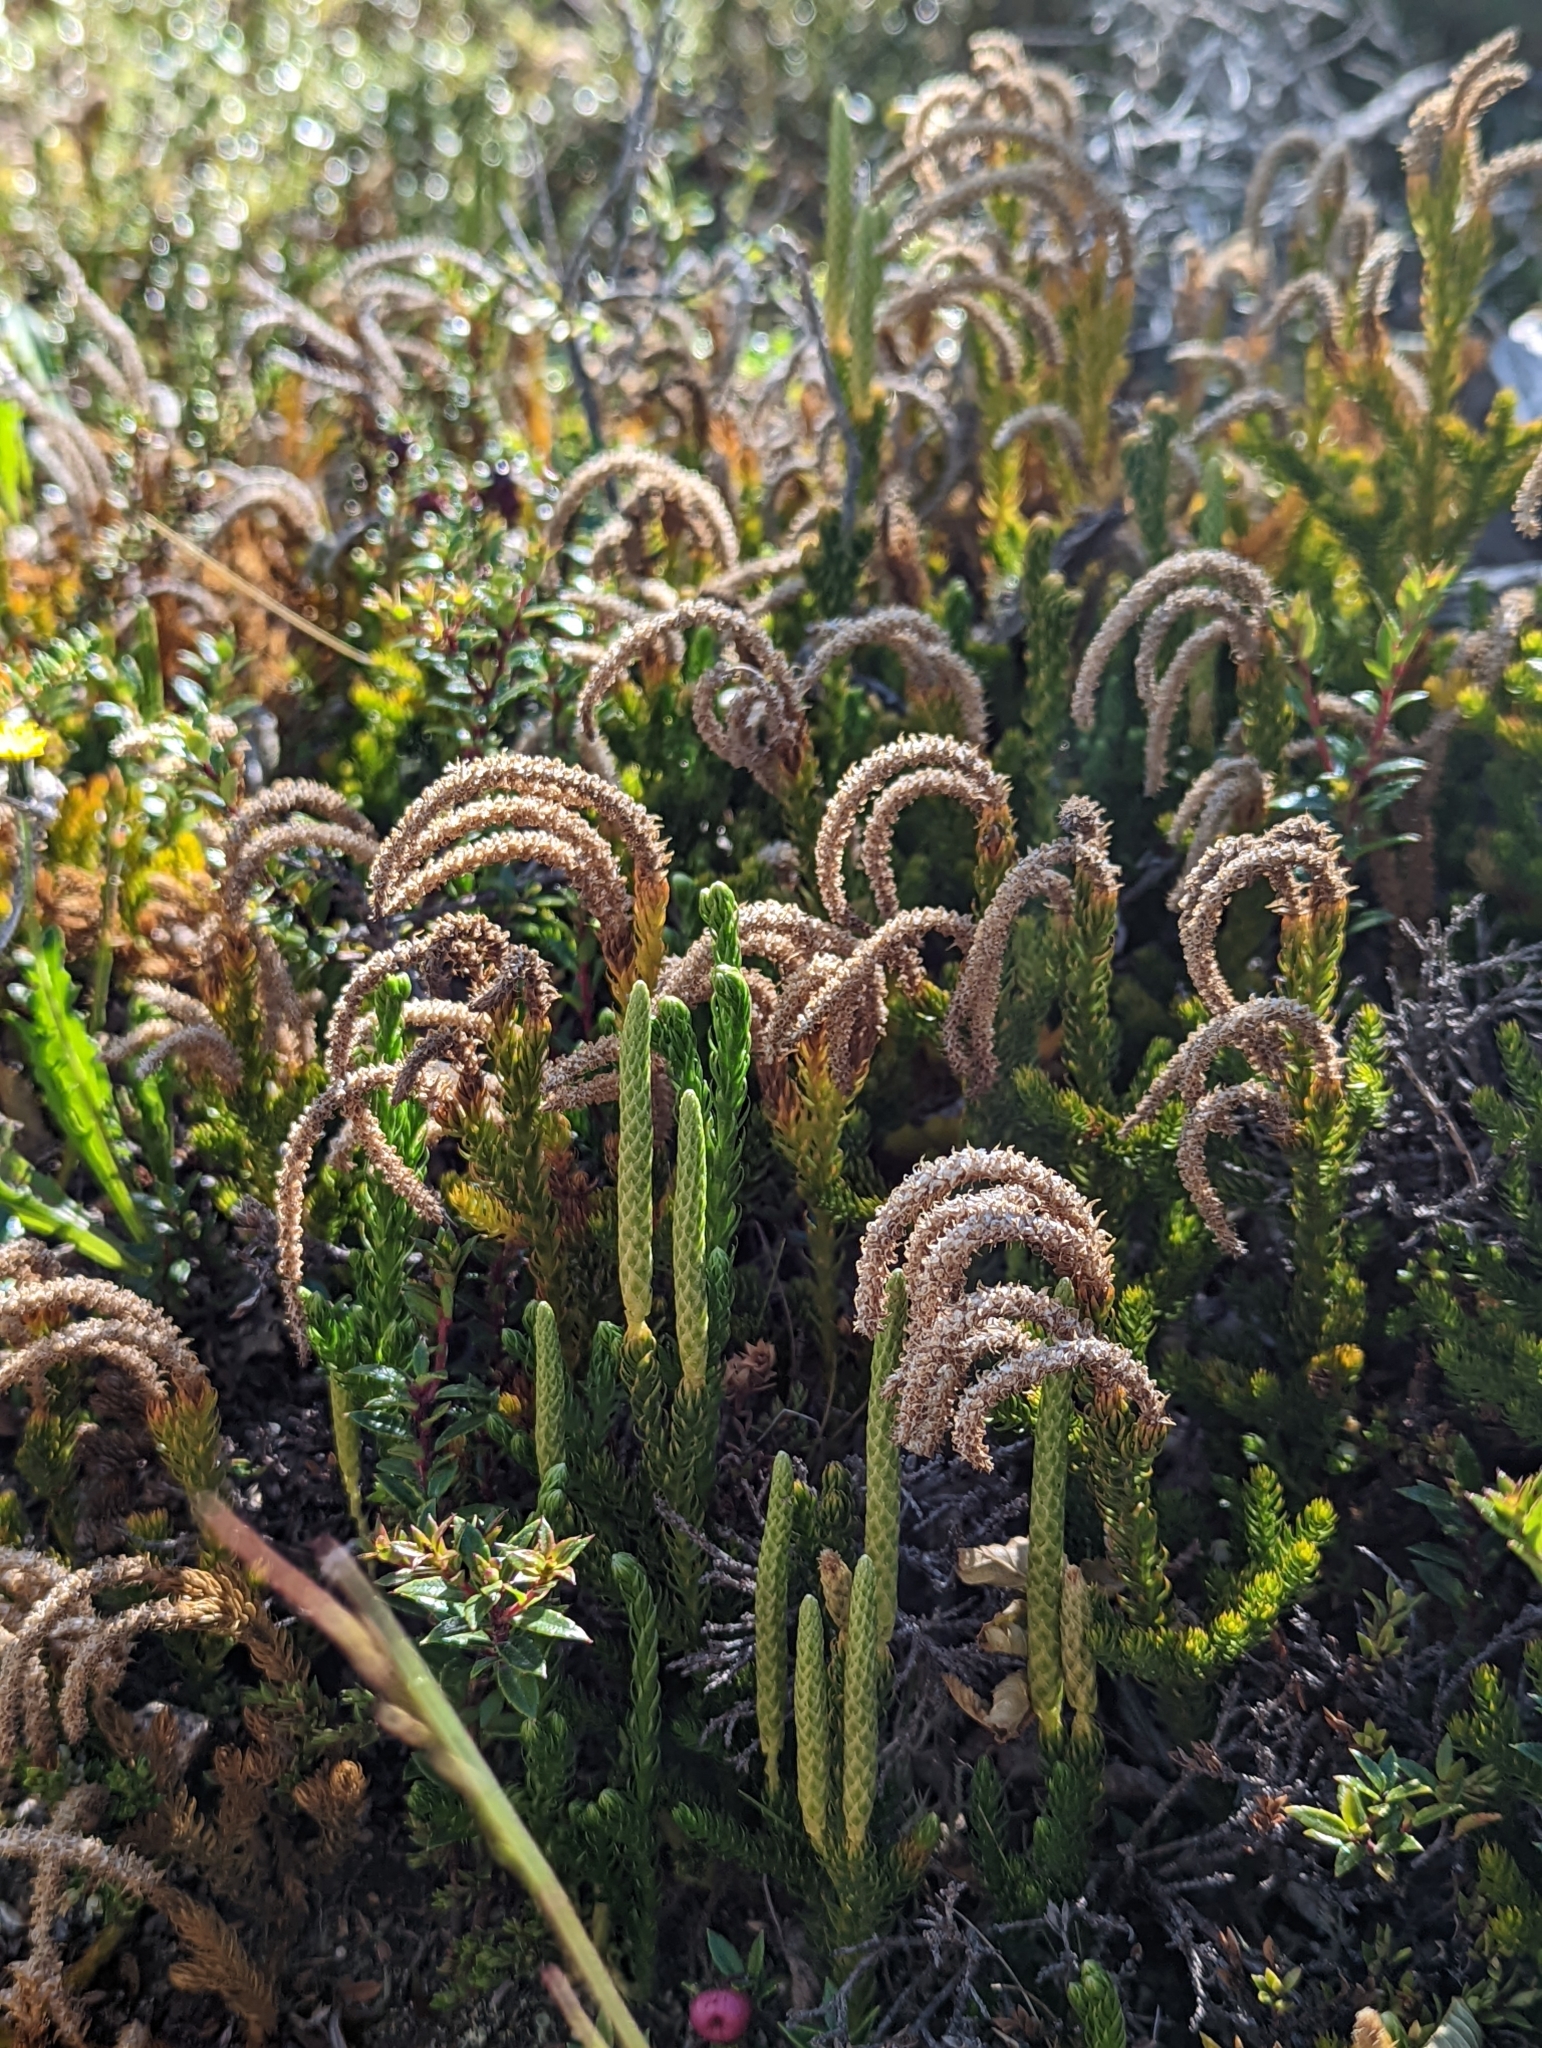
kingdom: Plantae
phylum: Tracheophyta
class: Lycopodiopsida
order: Lycopodiales
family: Lycopodiaceae
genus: Austrolycopodium
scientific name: Austrolycopodium magellanicum
